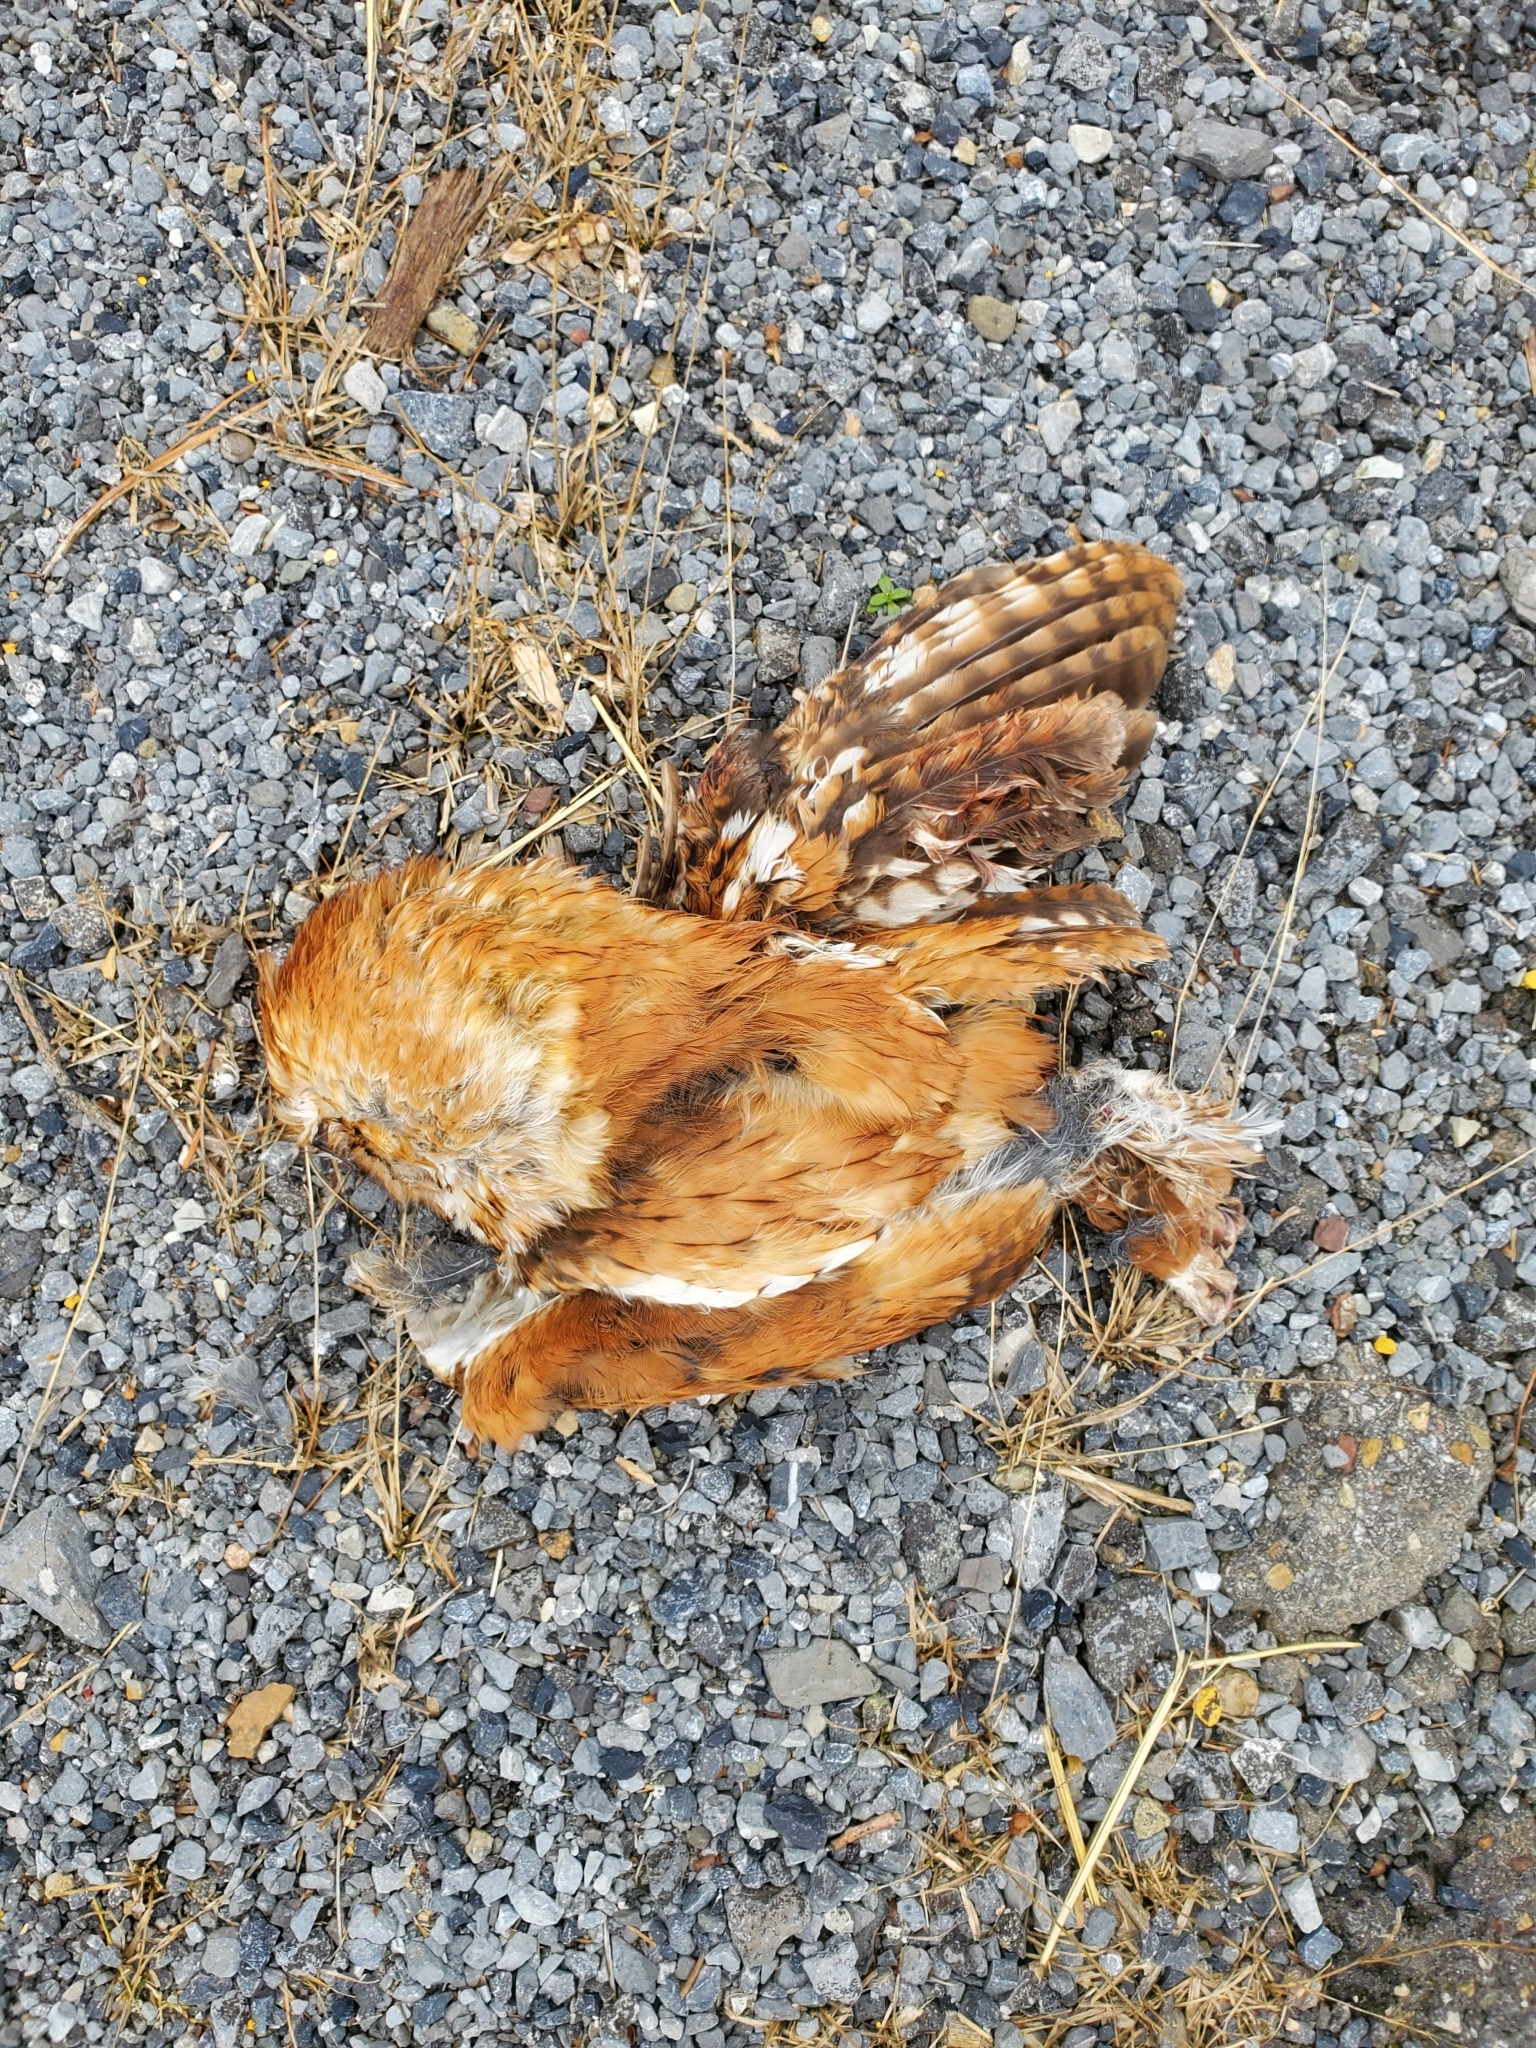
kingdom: Animalia
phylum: Chordata
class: Aves
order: Strigiformes
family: Strigidae
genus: Megascops
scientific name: Megascops asio
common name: Eastern screech-owl
